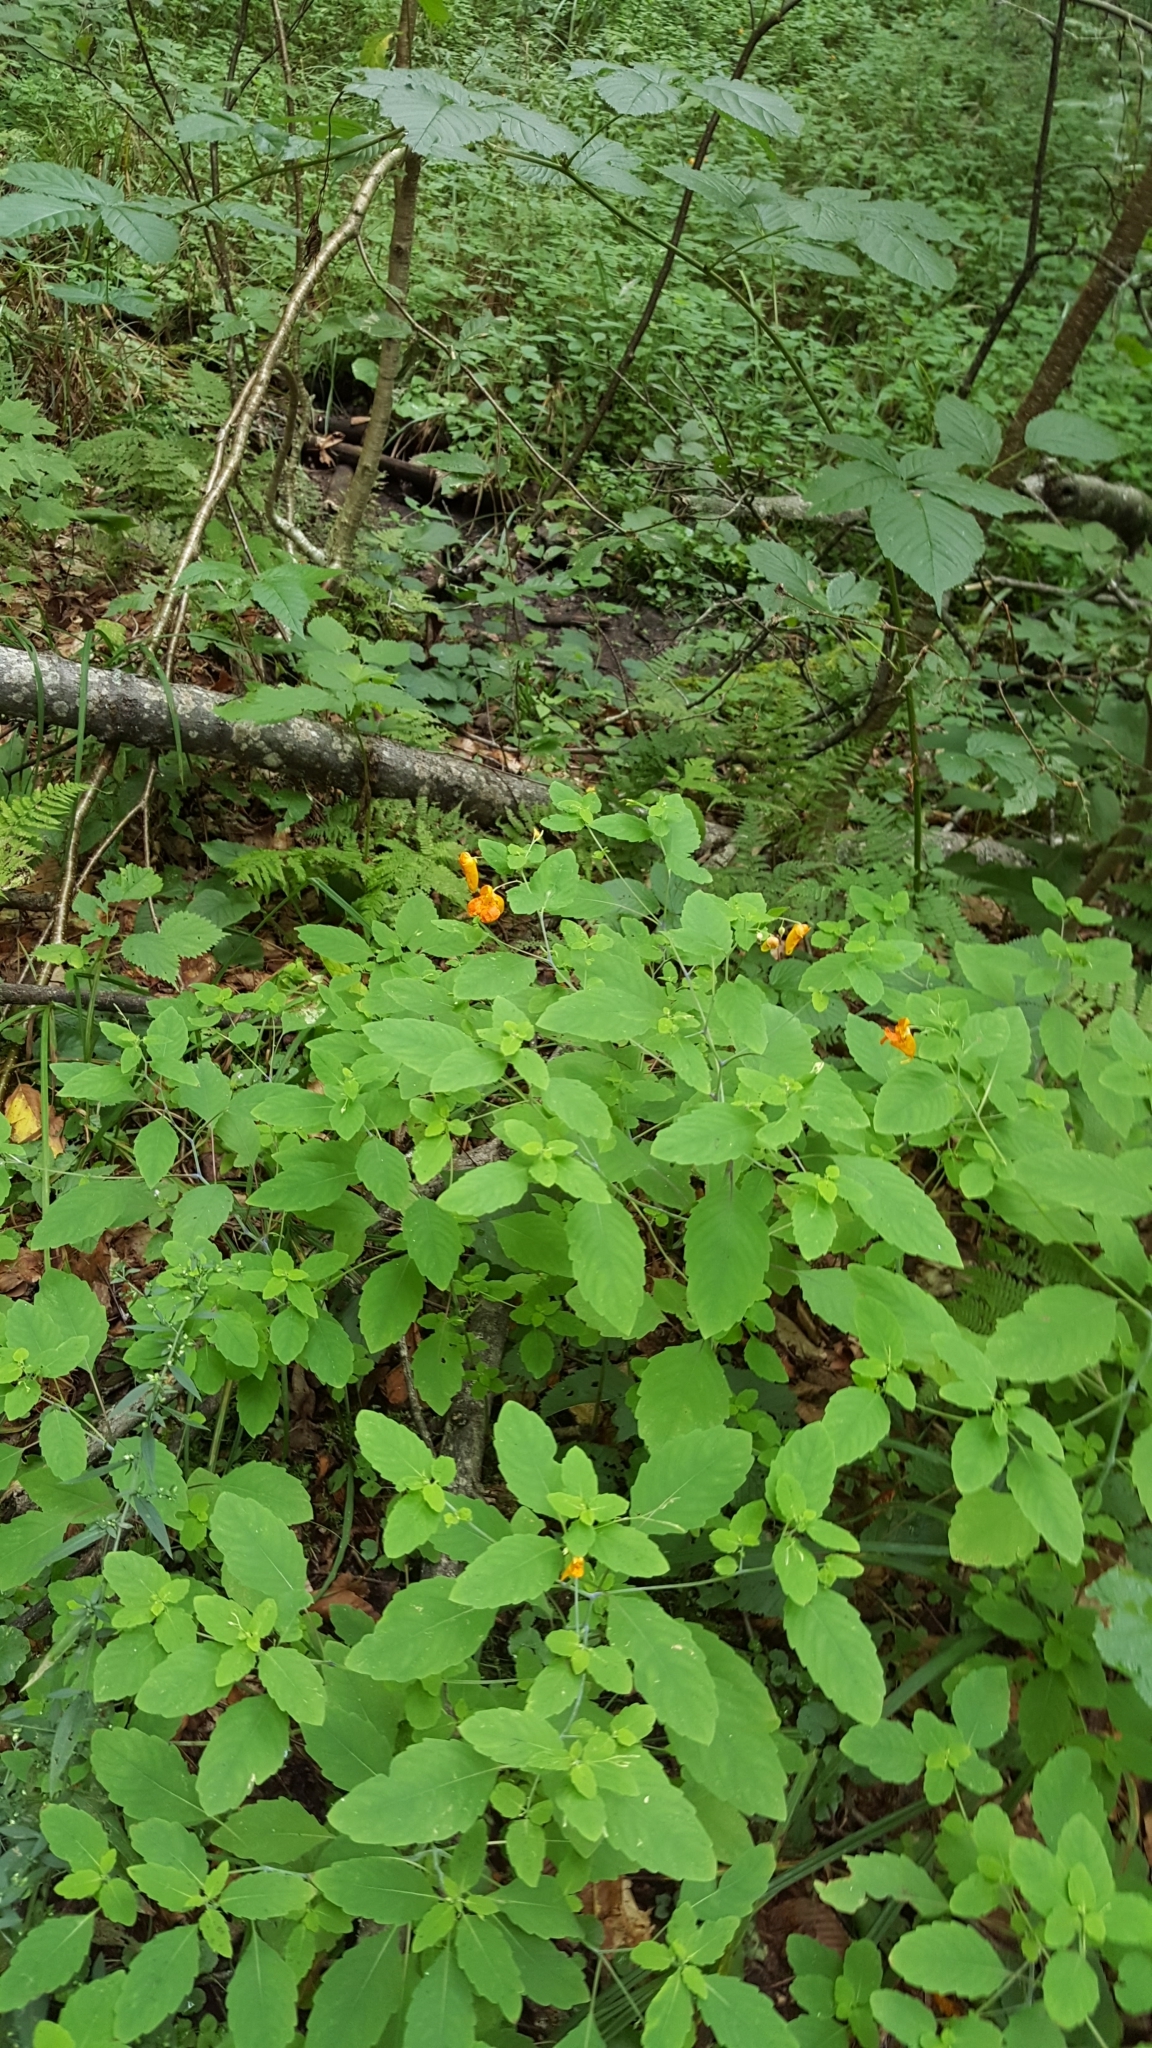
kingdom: Plantae
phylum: Tracheophyta
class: Magnoliopsida
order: Ericales
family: Balsaminaceae
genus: Impatiens
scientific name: Impatiens capensis
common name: Orange balsam
